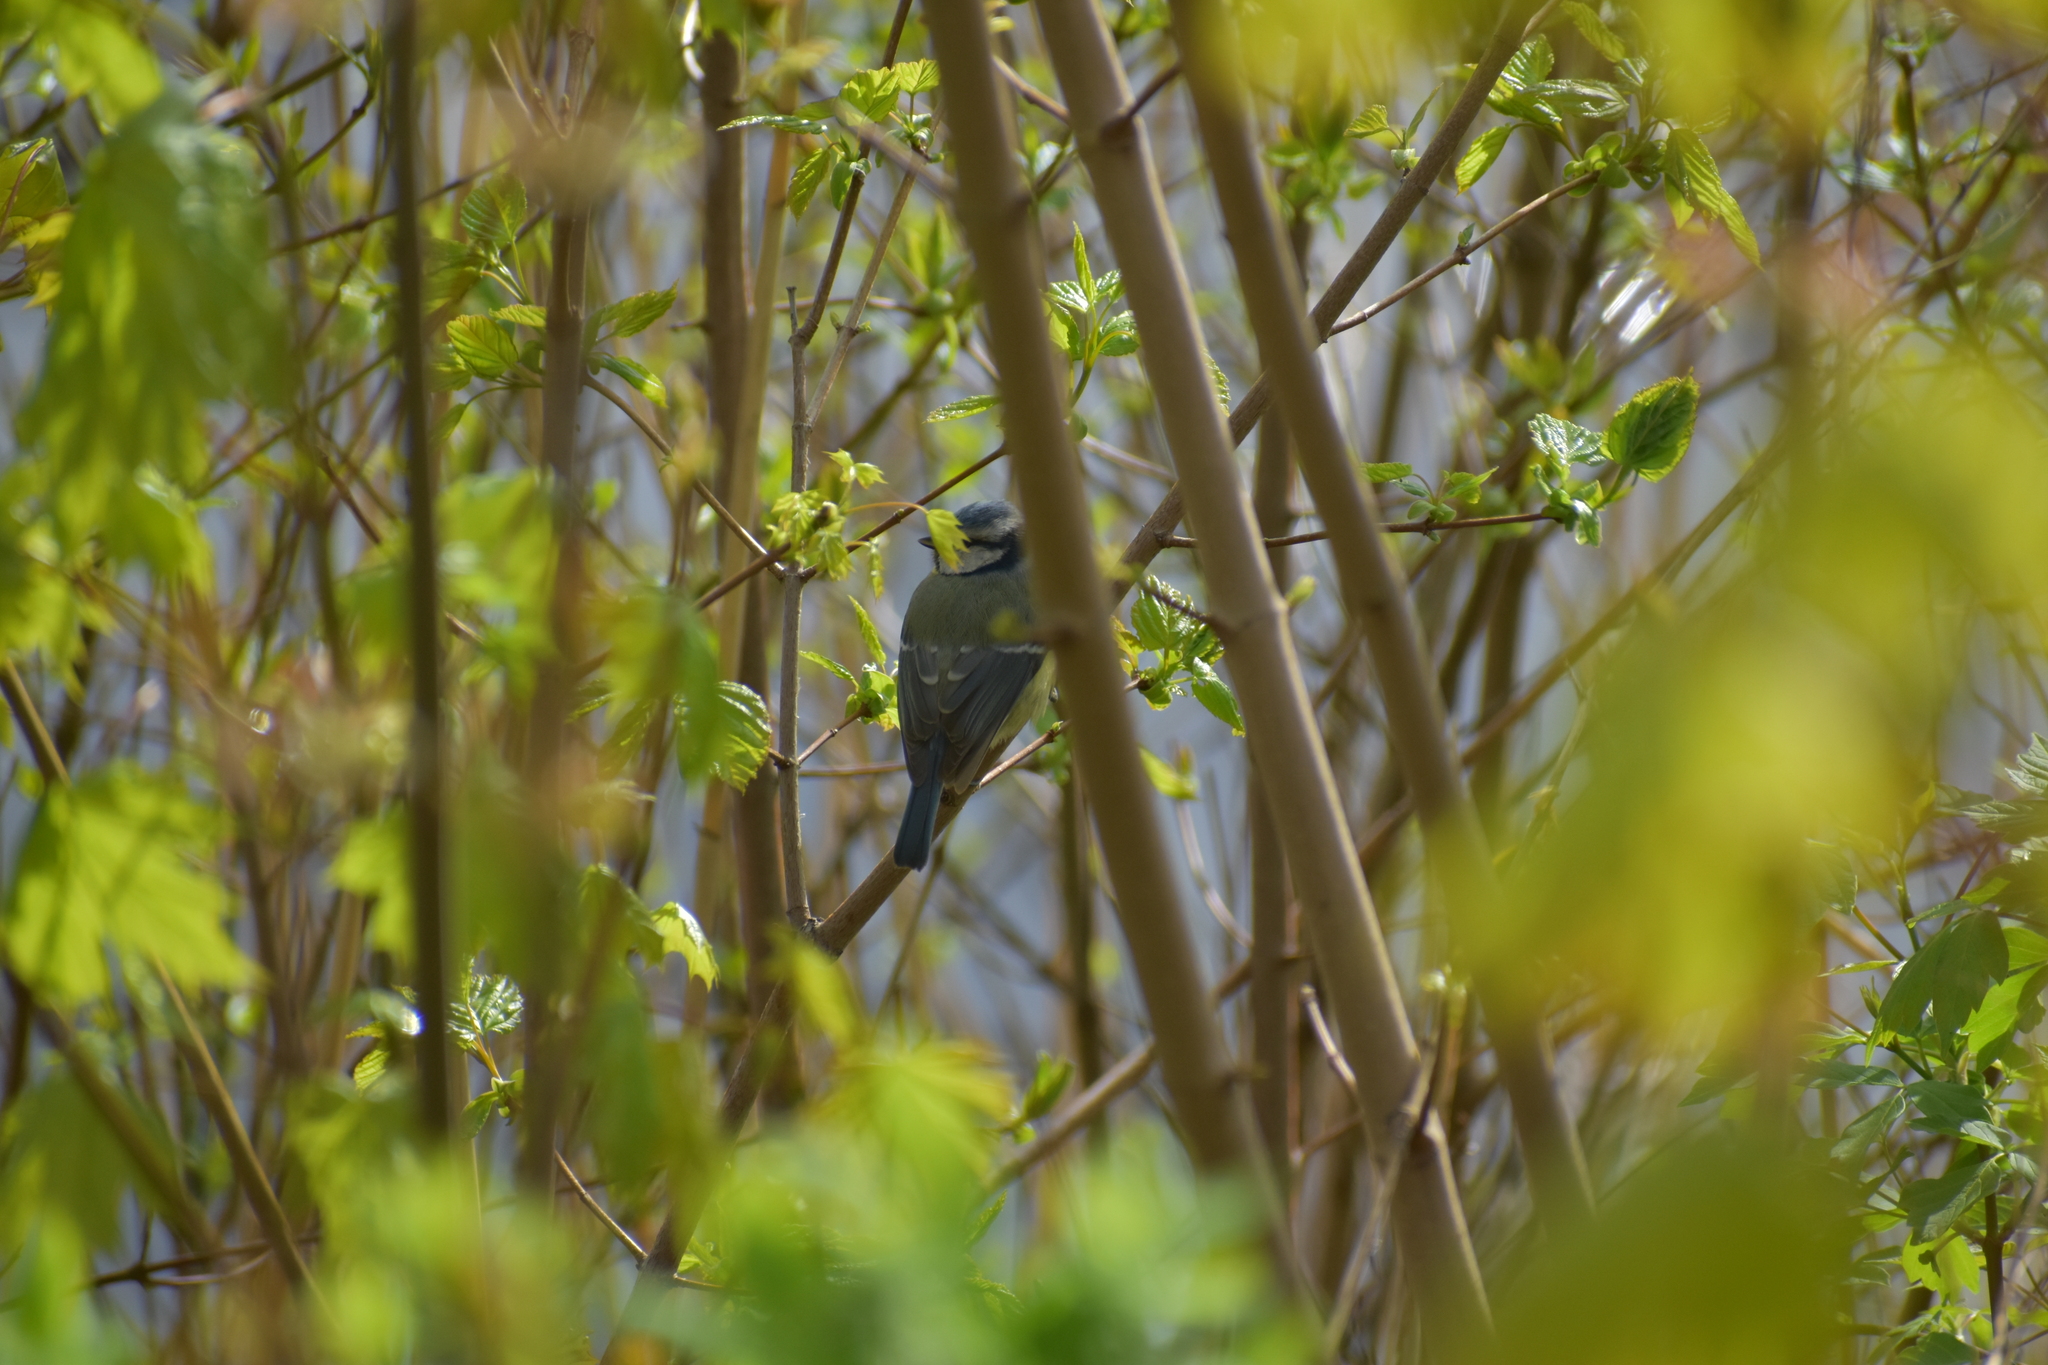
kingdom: Animalia
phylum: Chordata
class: Aves
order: Passeriformes
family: Paridae
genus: Cyanistes
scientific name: Cyanistes caeruleus
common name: Eurasian blue tit
